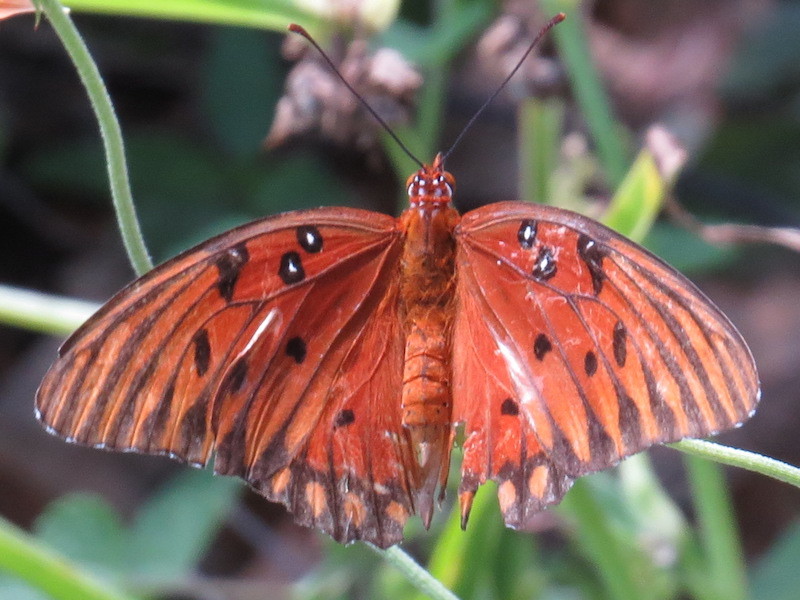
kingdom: Animalia
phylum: Arthropoda
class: Insecta
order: Lepidoptera
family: Nymphalidae
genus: Dione
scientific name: Dione vanillae
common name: Gulf fritillary
